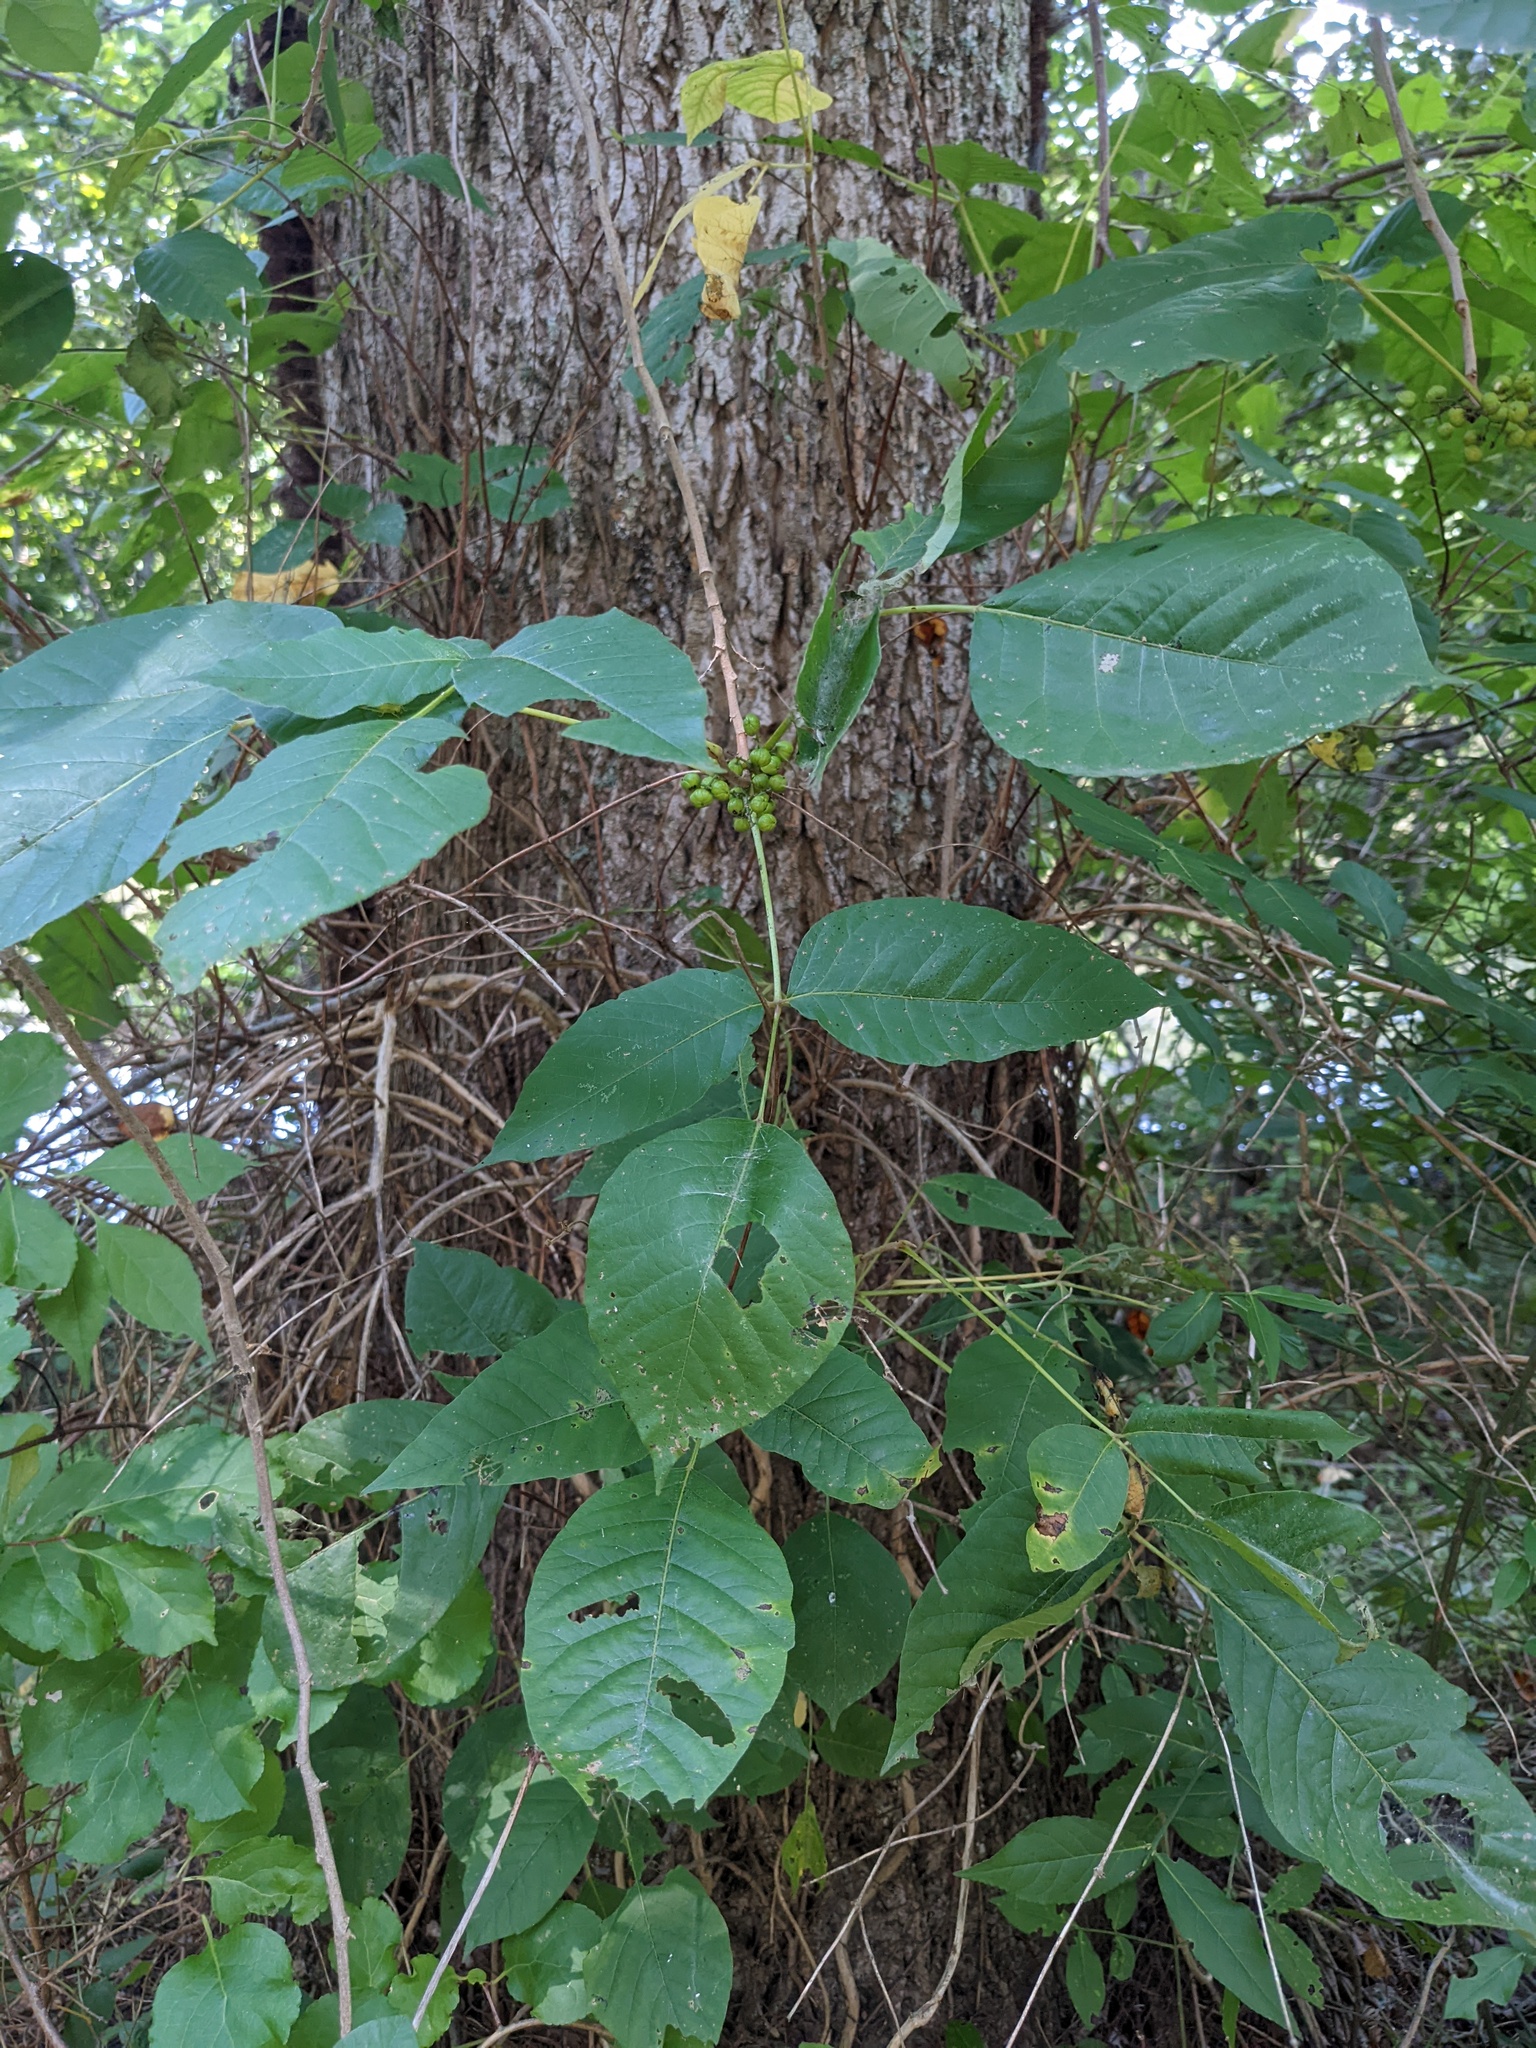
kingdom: Plantae
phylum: Tracheophyta
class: Magnoliopsida
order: Sapindales
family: Anacardiaceae
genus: Toxicodendron
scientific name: Toxicodendron radicans
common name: Poison ivy
